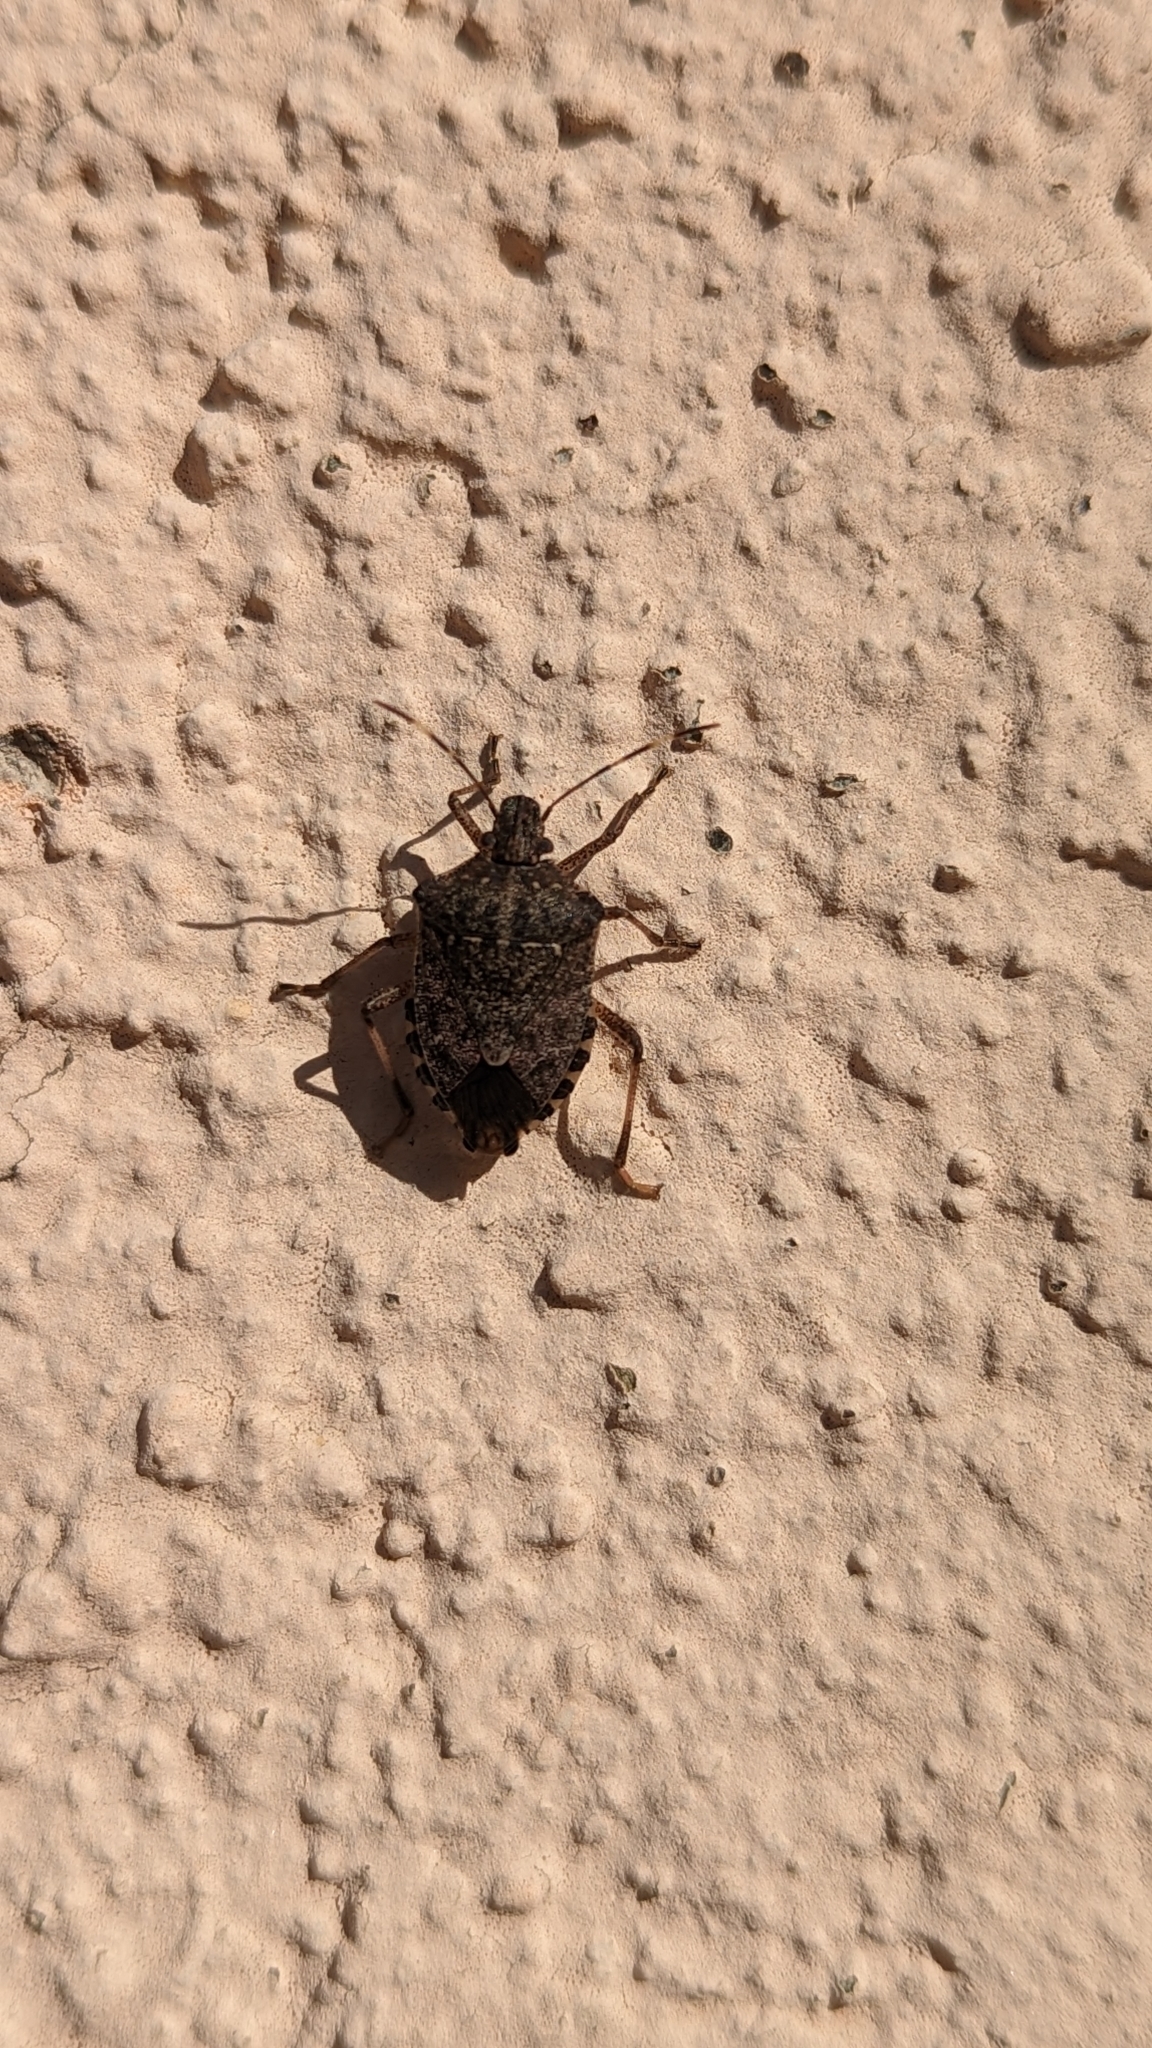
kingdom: Animalia
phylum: Arthropoda
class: Insecta
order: Hemiptera
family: Pentatomidae
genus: Halyomorpha
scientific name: Halyomorpha halys
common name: Brown marmorated stink bug
